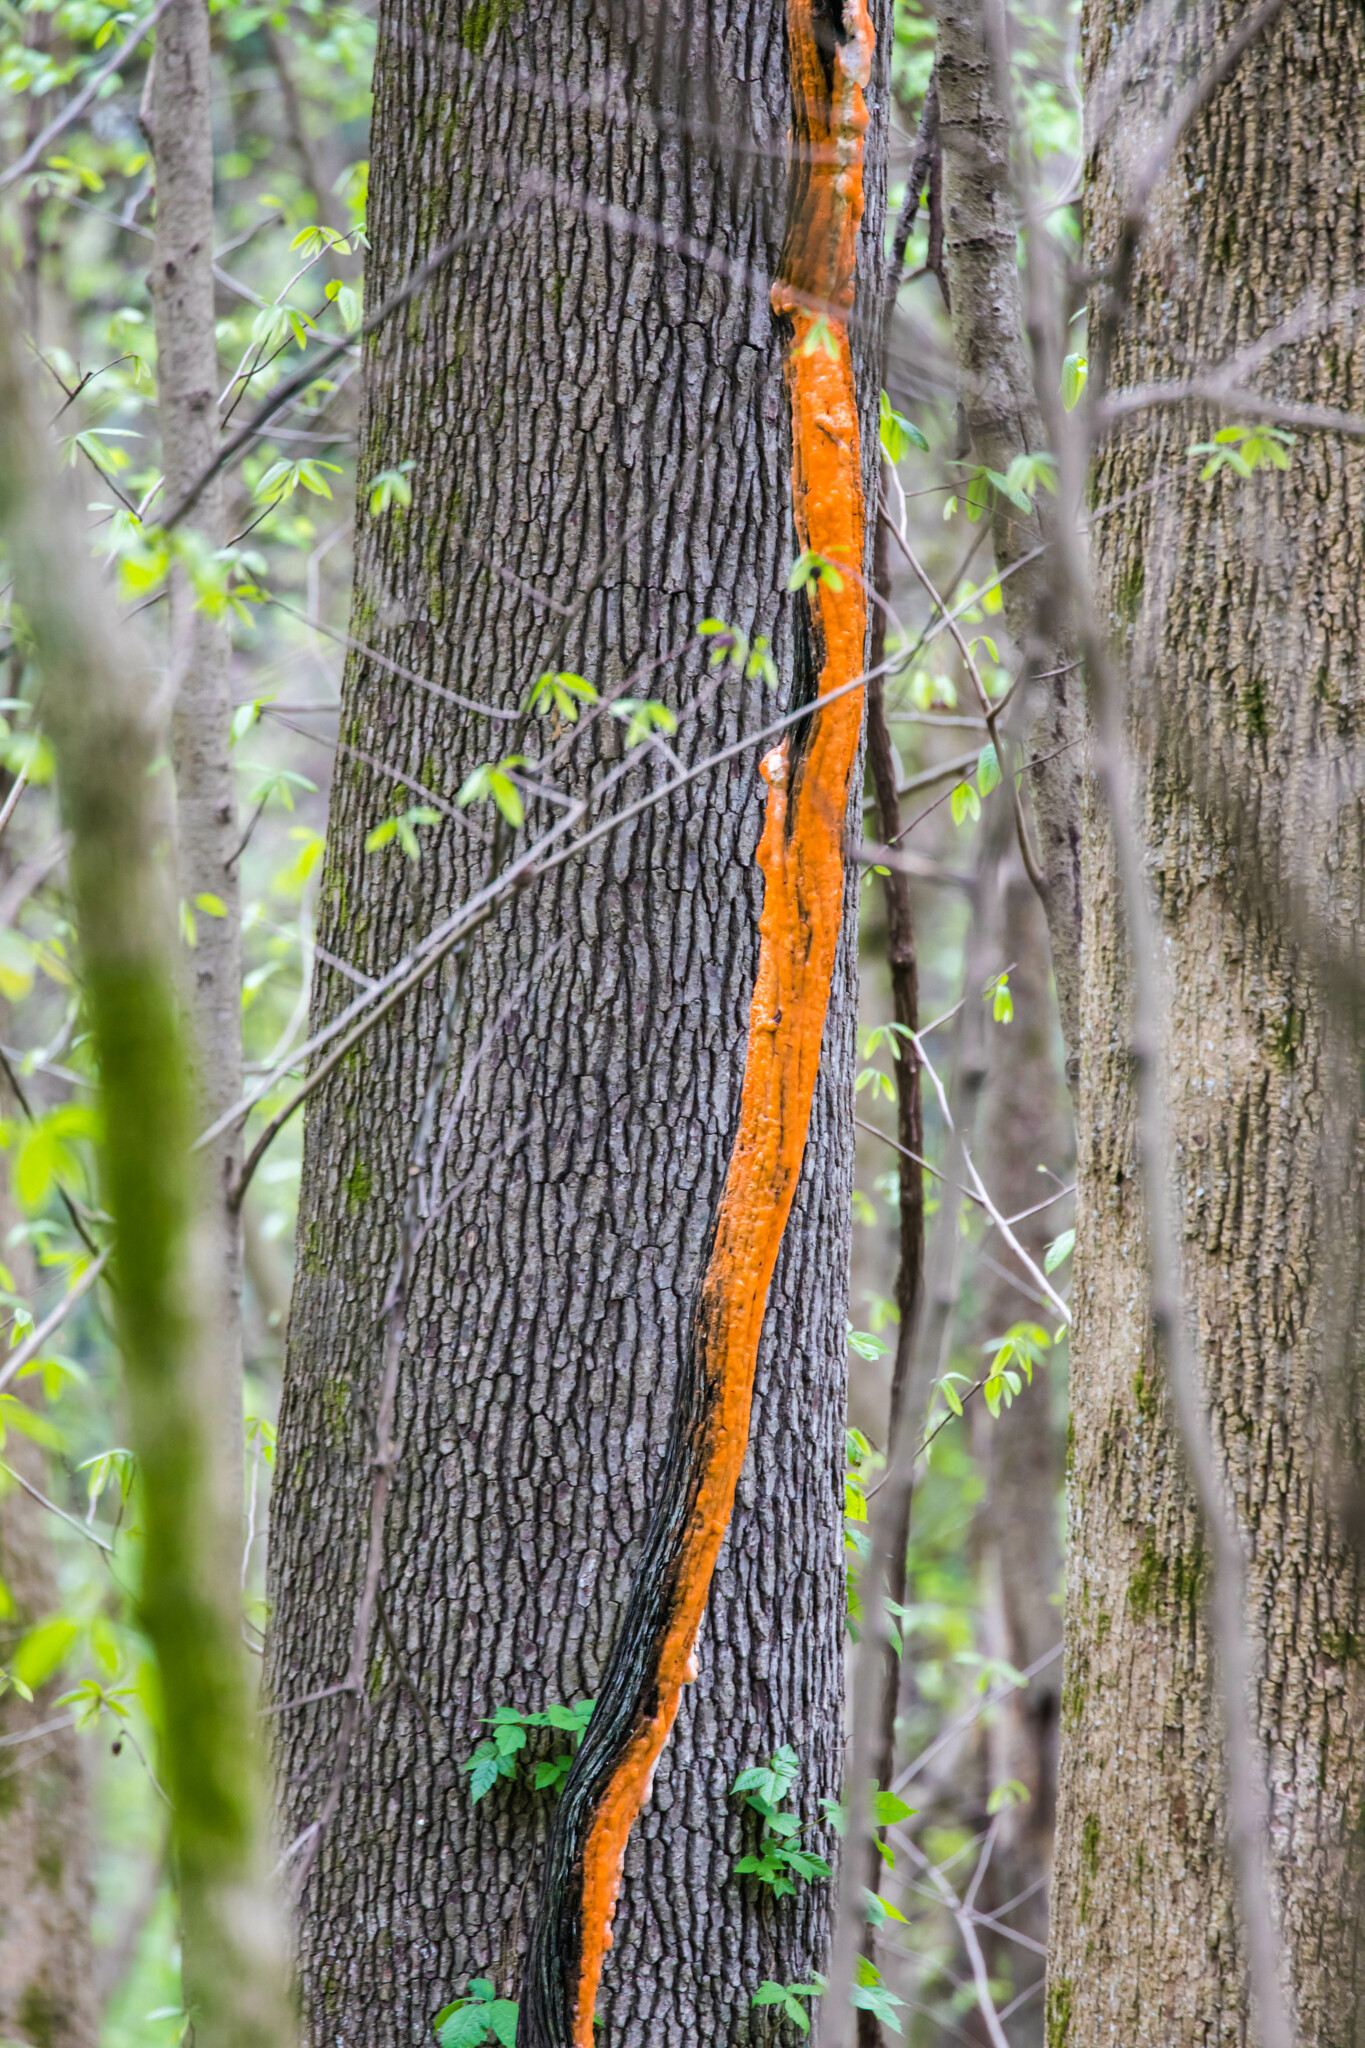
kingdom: Fungi
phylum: Ascomycota
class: Sordariomycetes
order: Hypocreales
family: Nectriaceae
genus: Fusicolla
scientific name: Fusicolla merismoides
